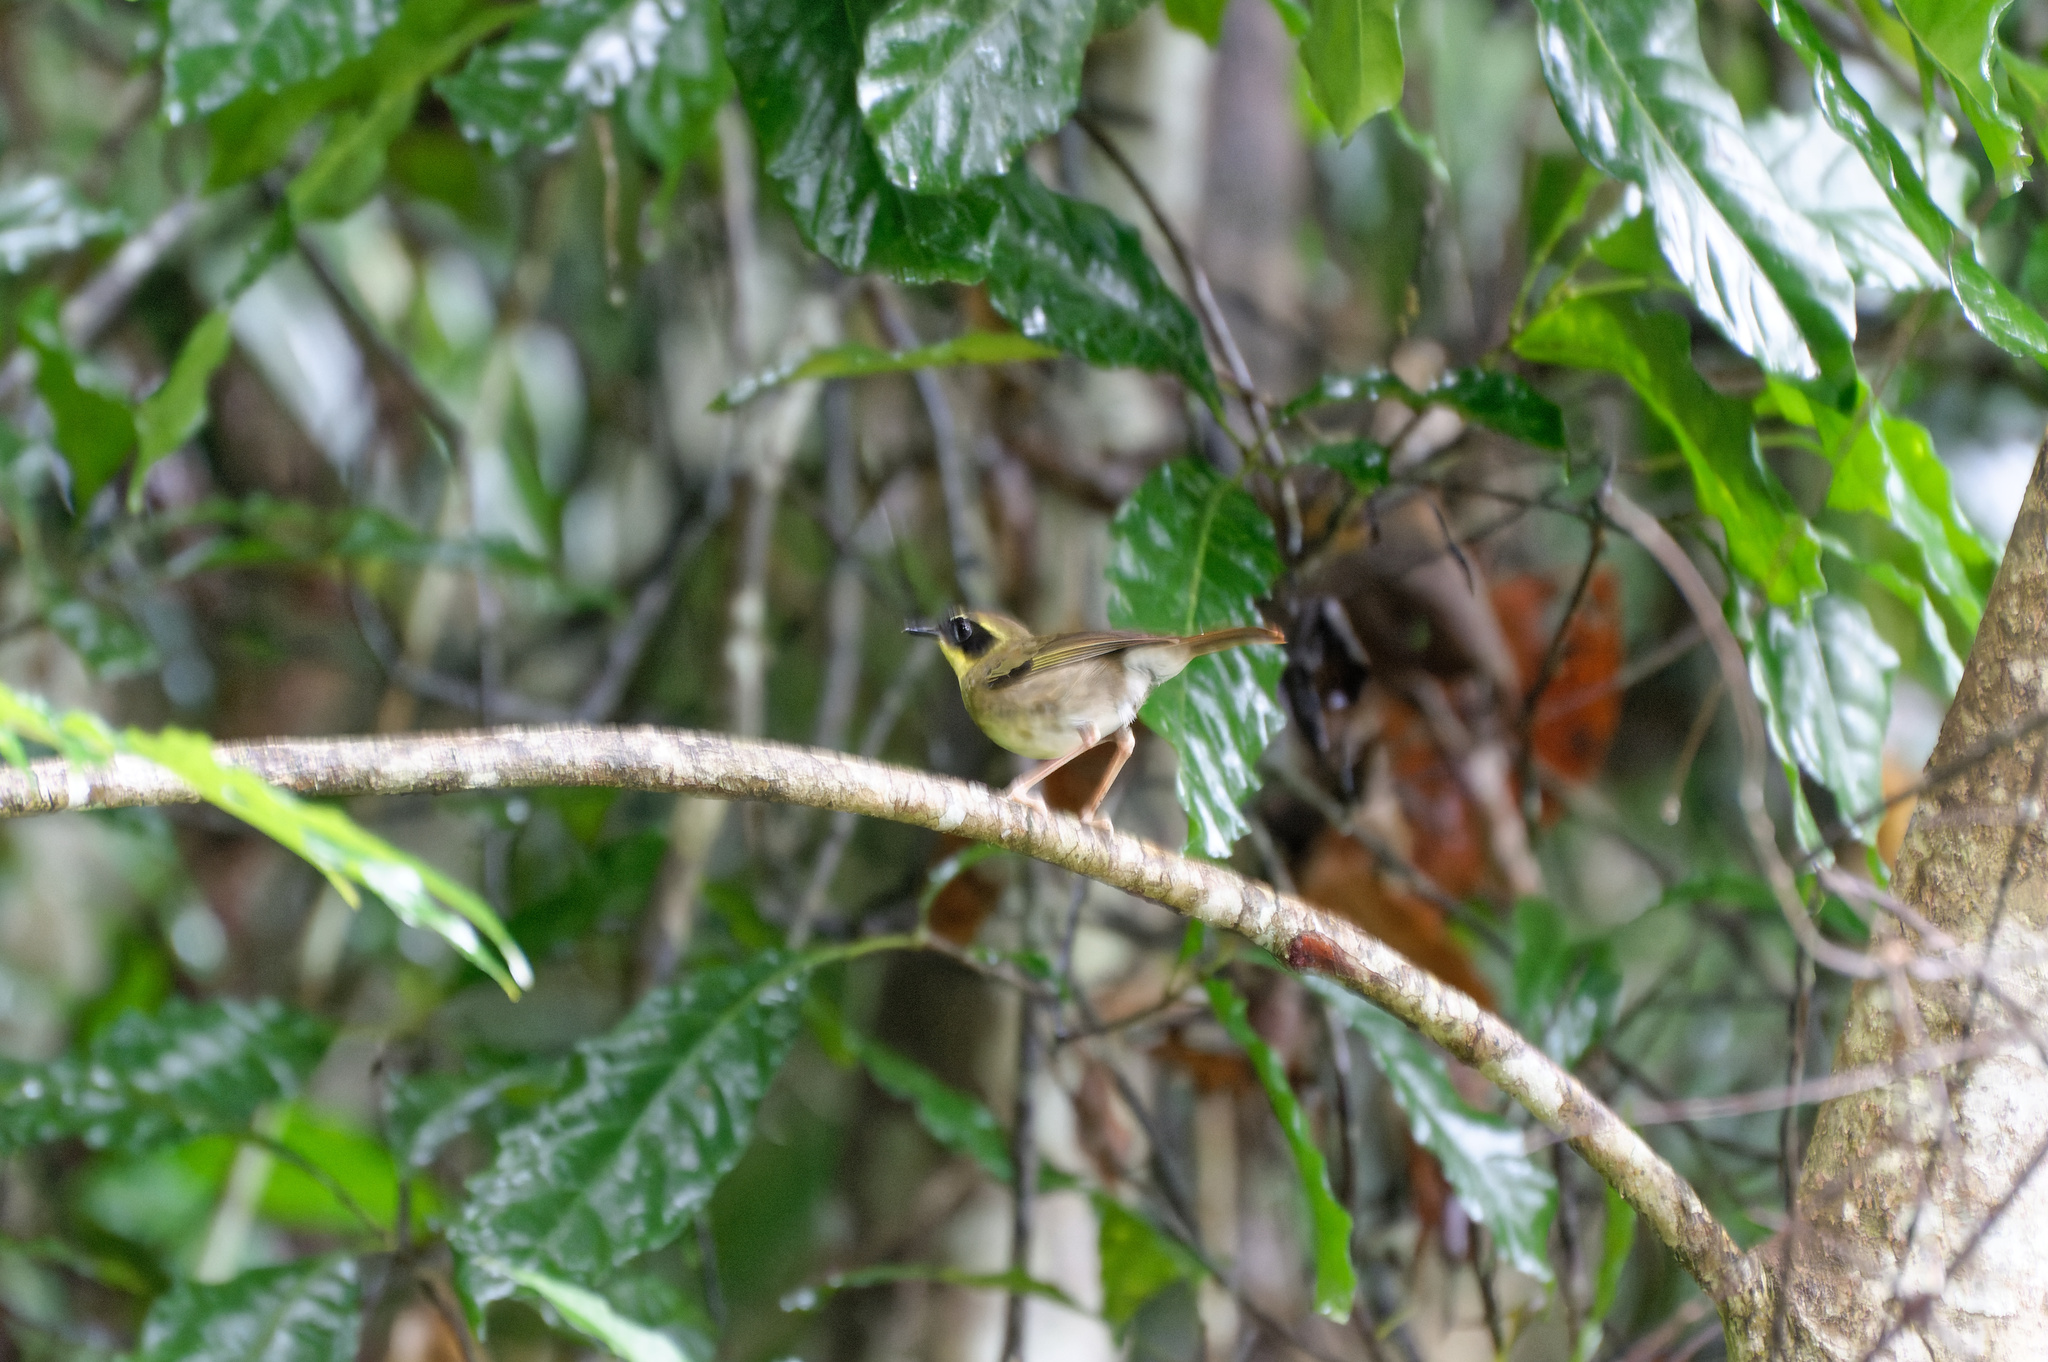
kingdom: Animalia
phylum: Chordata
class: Aves
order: Passeriformes
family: Acanthizidae
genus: Sericornis
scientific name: Sericornis citreogularis
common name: Yellow-throated scrubwren
